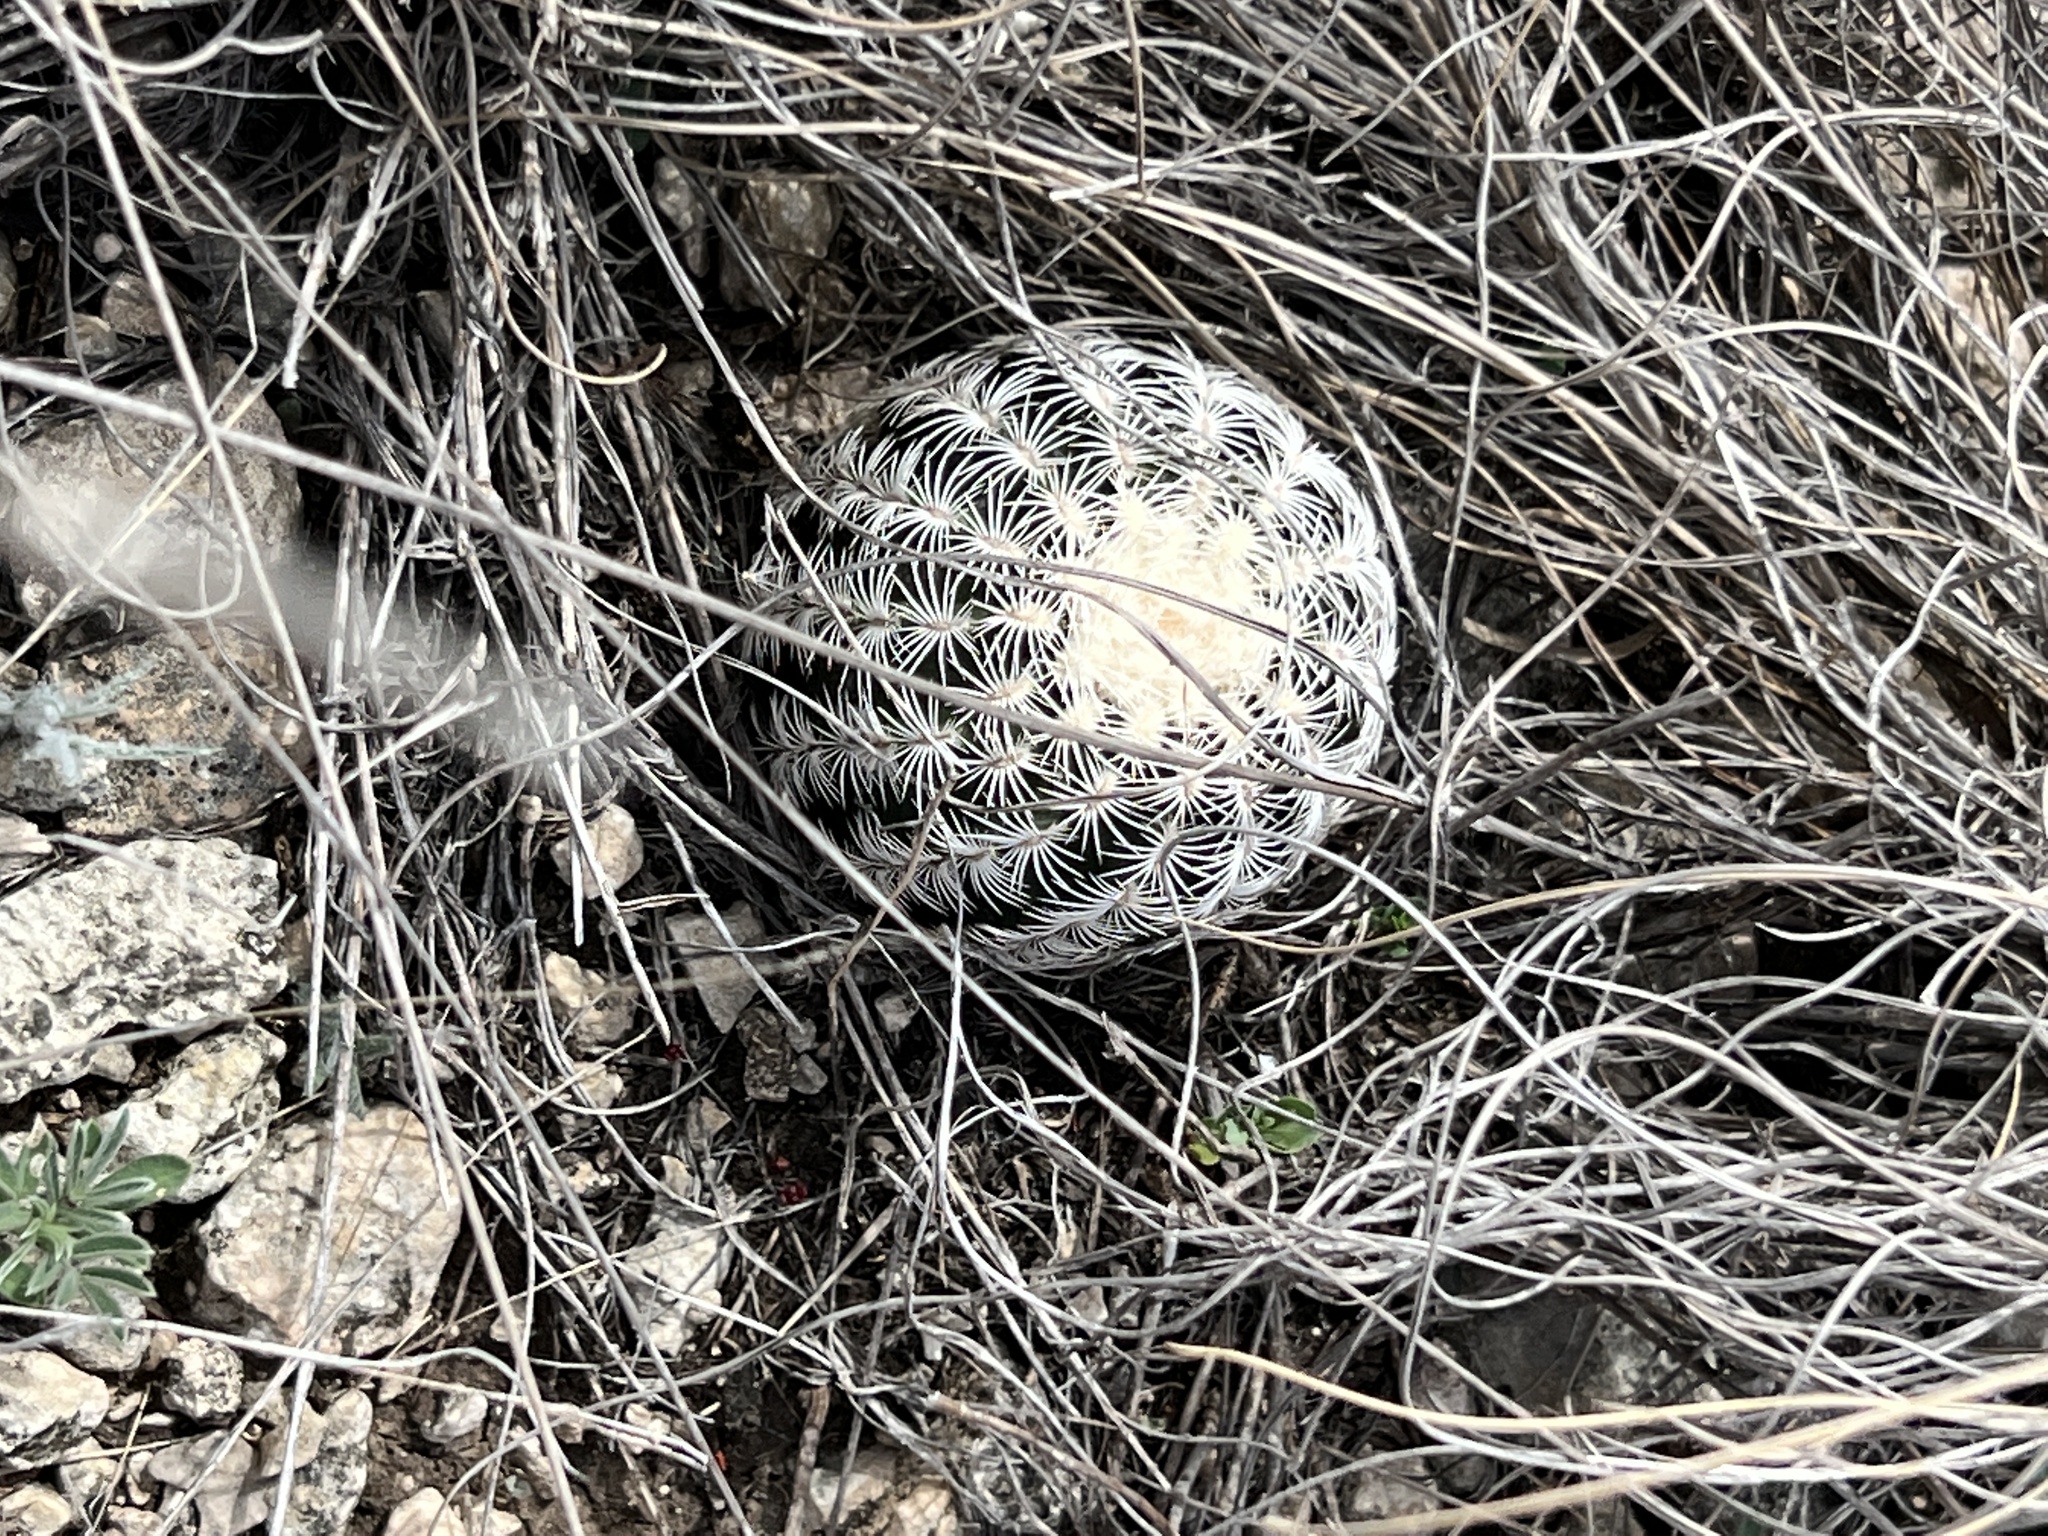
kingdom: Plantae
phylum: Tracheophyta
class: Magnoliopsida
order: Caryophyllales
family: Cactaceae
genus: Echinocereus
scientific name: Echinocereus reichenbachii
